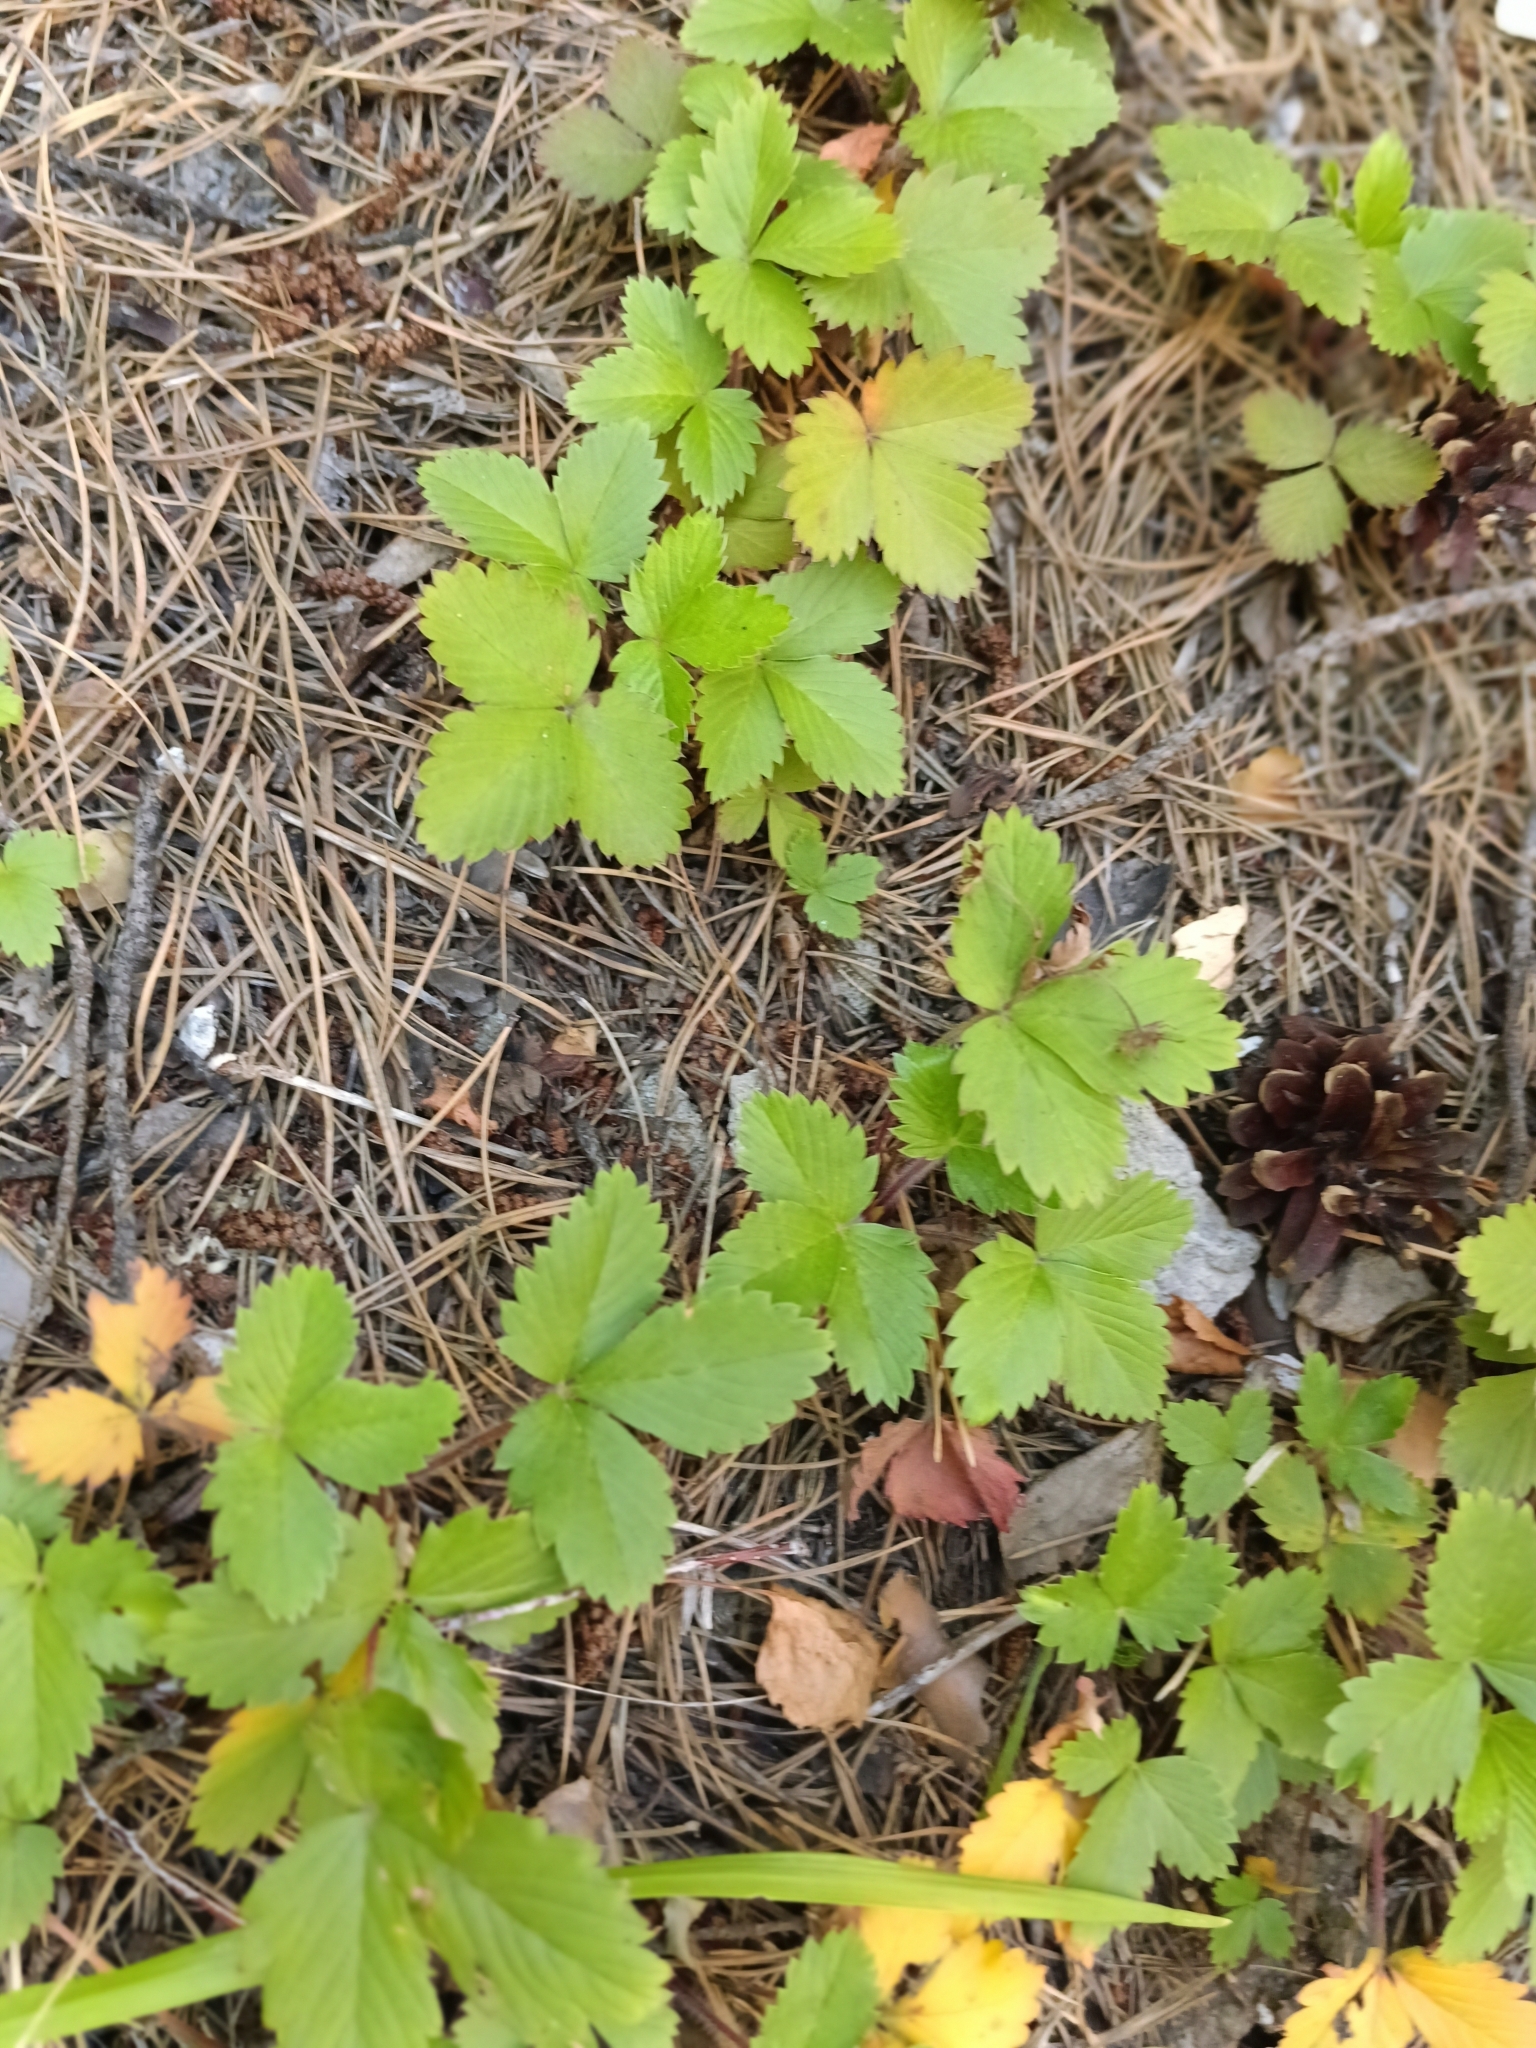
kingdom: Plantae
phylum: Tracheophyta
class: Magnoliopsida
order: Rosales
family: Rosaceae
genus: Fragaria
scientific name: Fragaria vesca
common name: Wild strawberry
